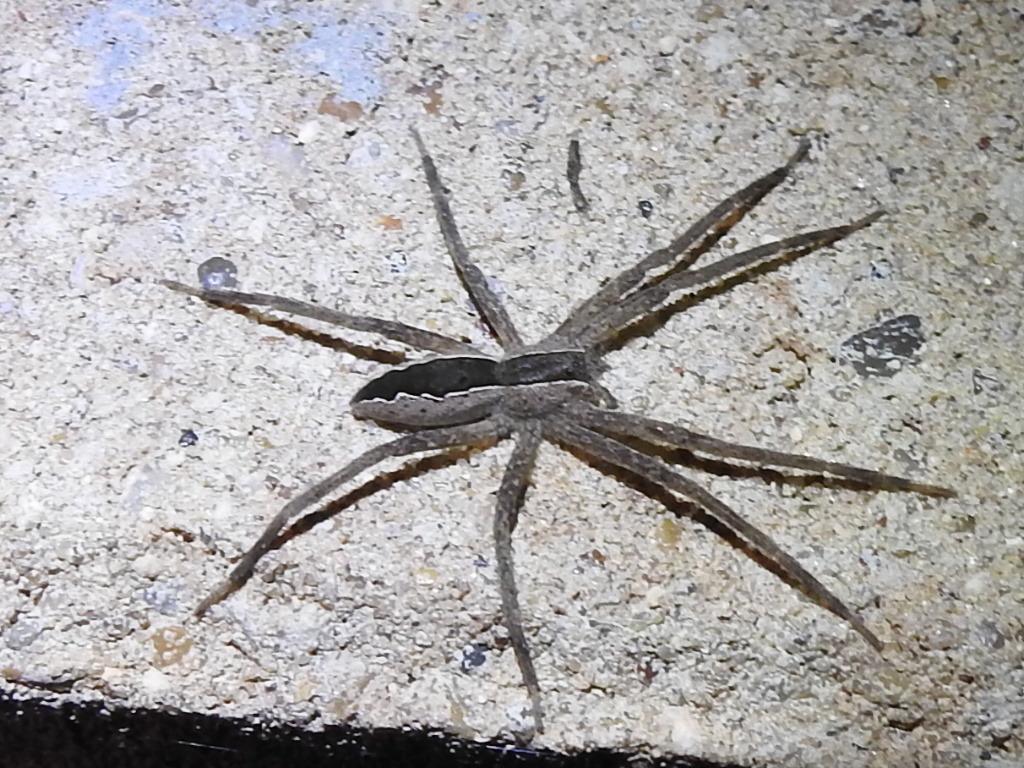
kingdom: Animalia
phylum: Arthropoda
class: Arachnida
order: Araneae
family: Pisauridae
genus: Pisaurina
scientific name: Pisaurina mira
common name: American nursery web spider
